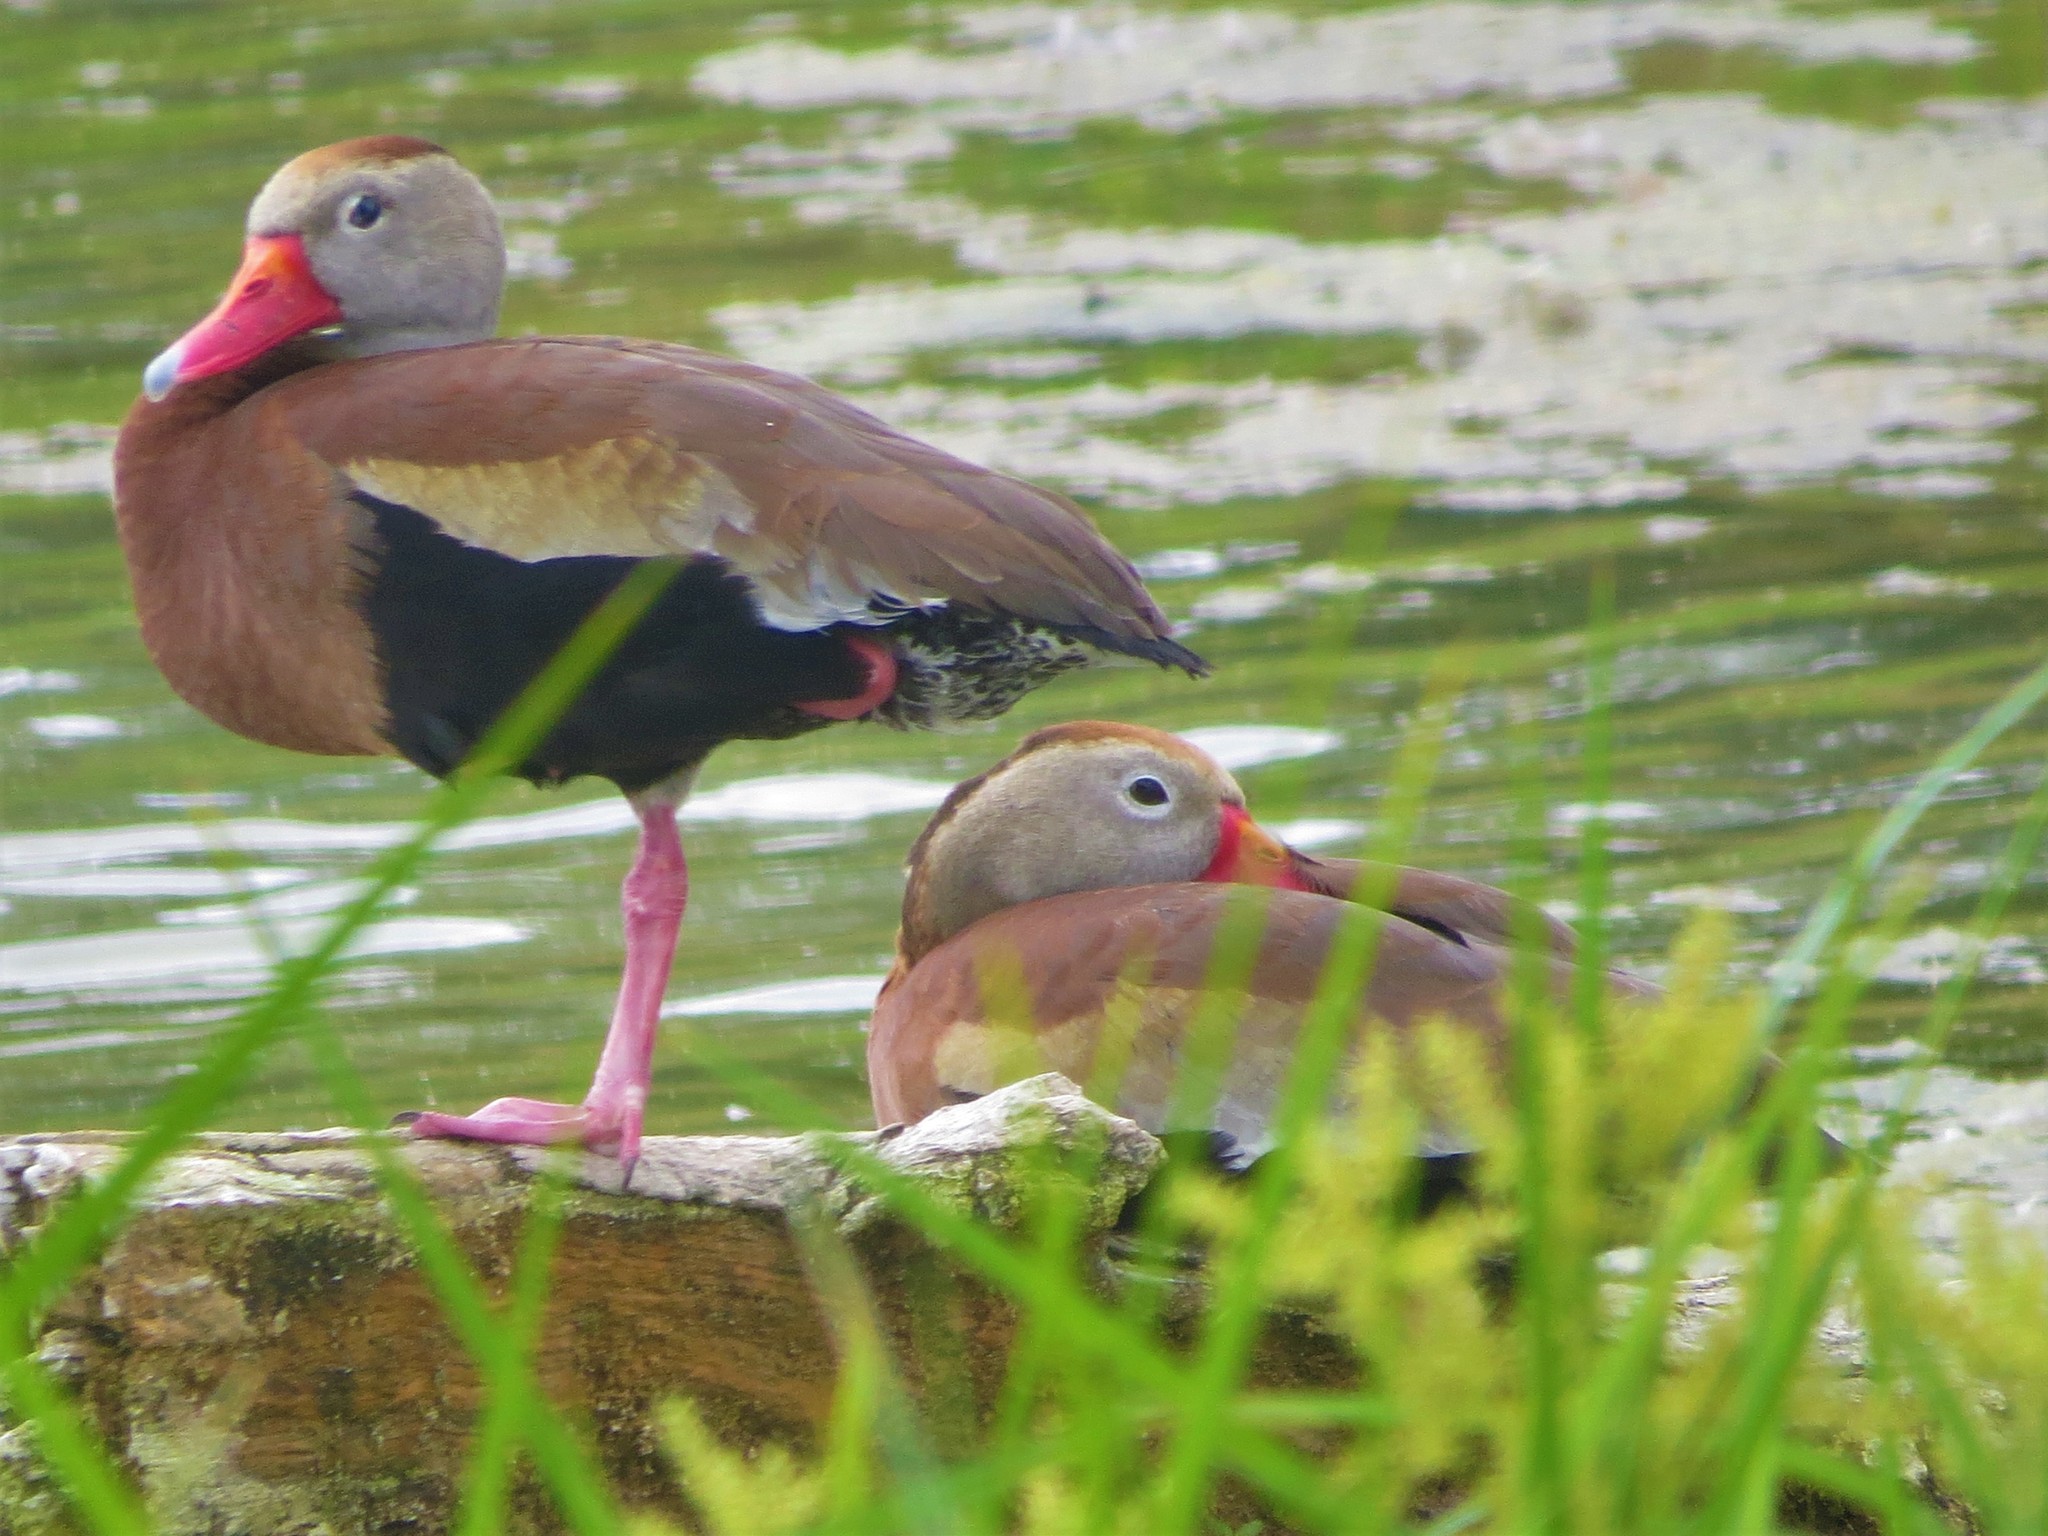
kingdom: Animalia
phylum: Chordata
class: Aves
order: Anseriformes
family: Anatidae
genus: Dendrocygna
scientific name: Dendrocygna autumnalis
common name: Black-bellied whistling duck
